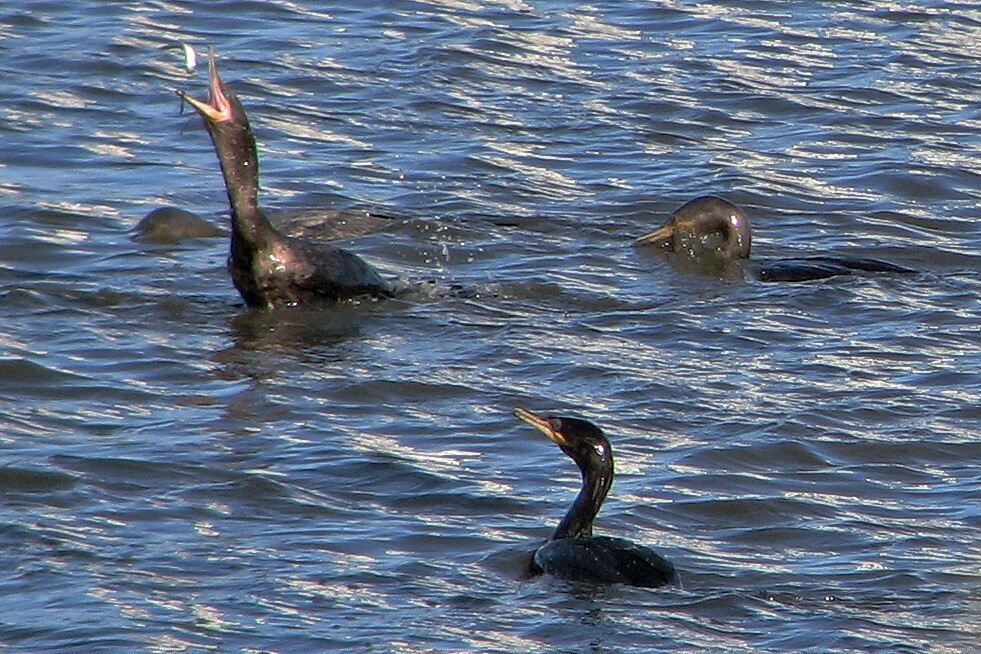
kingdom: Animalia
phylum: Chordata
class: Aves
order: Suliformes
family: Phalacrocoracidae
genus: Phalacrocorax
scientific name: Phalacrocorax brasilianus
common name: Neotropic cormorant
